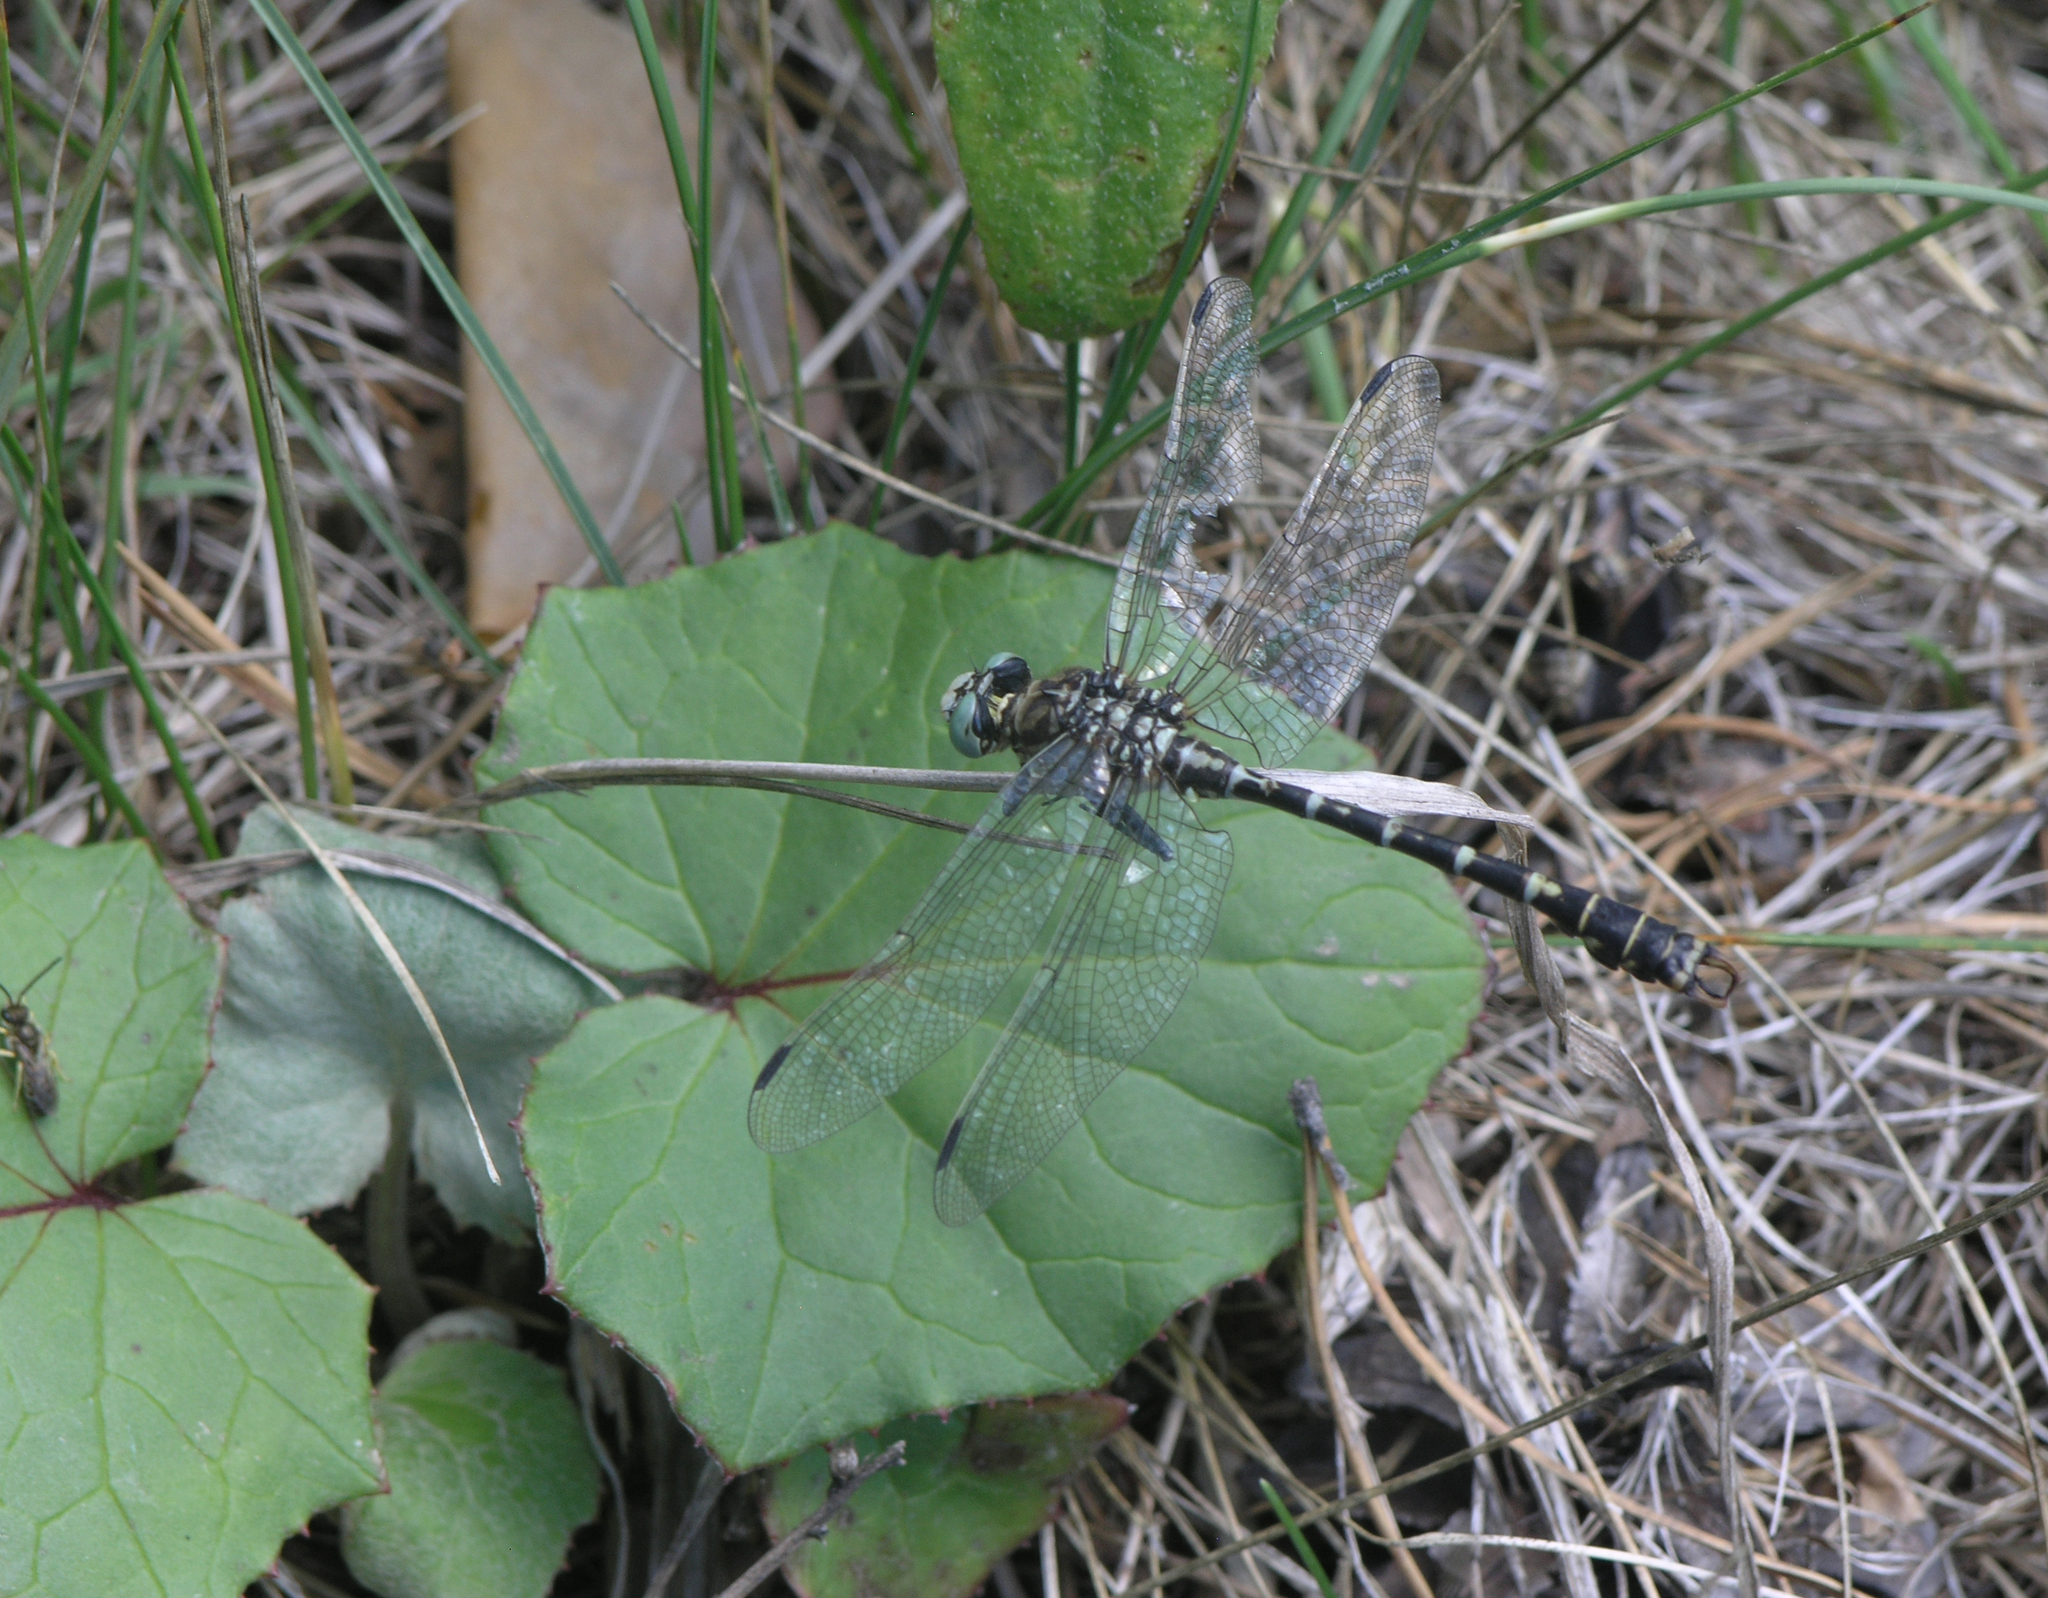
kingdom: Plantae
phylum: Tracheophyta
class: Magnoliopsida
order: Asterales
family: Asteraceae
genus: Tussilago
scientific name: Tussilago farfara
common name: Coltsfoot
